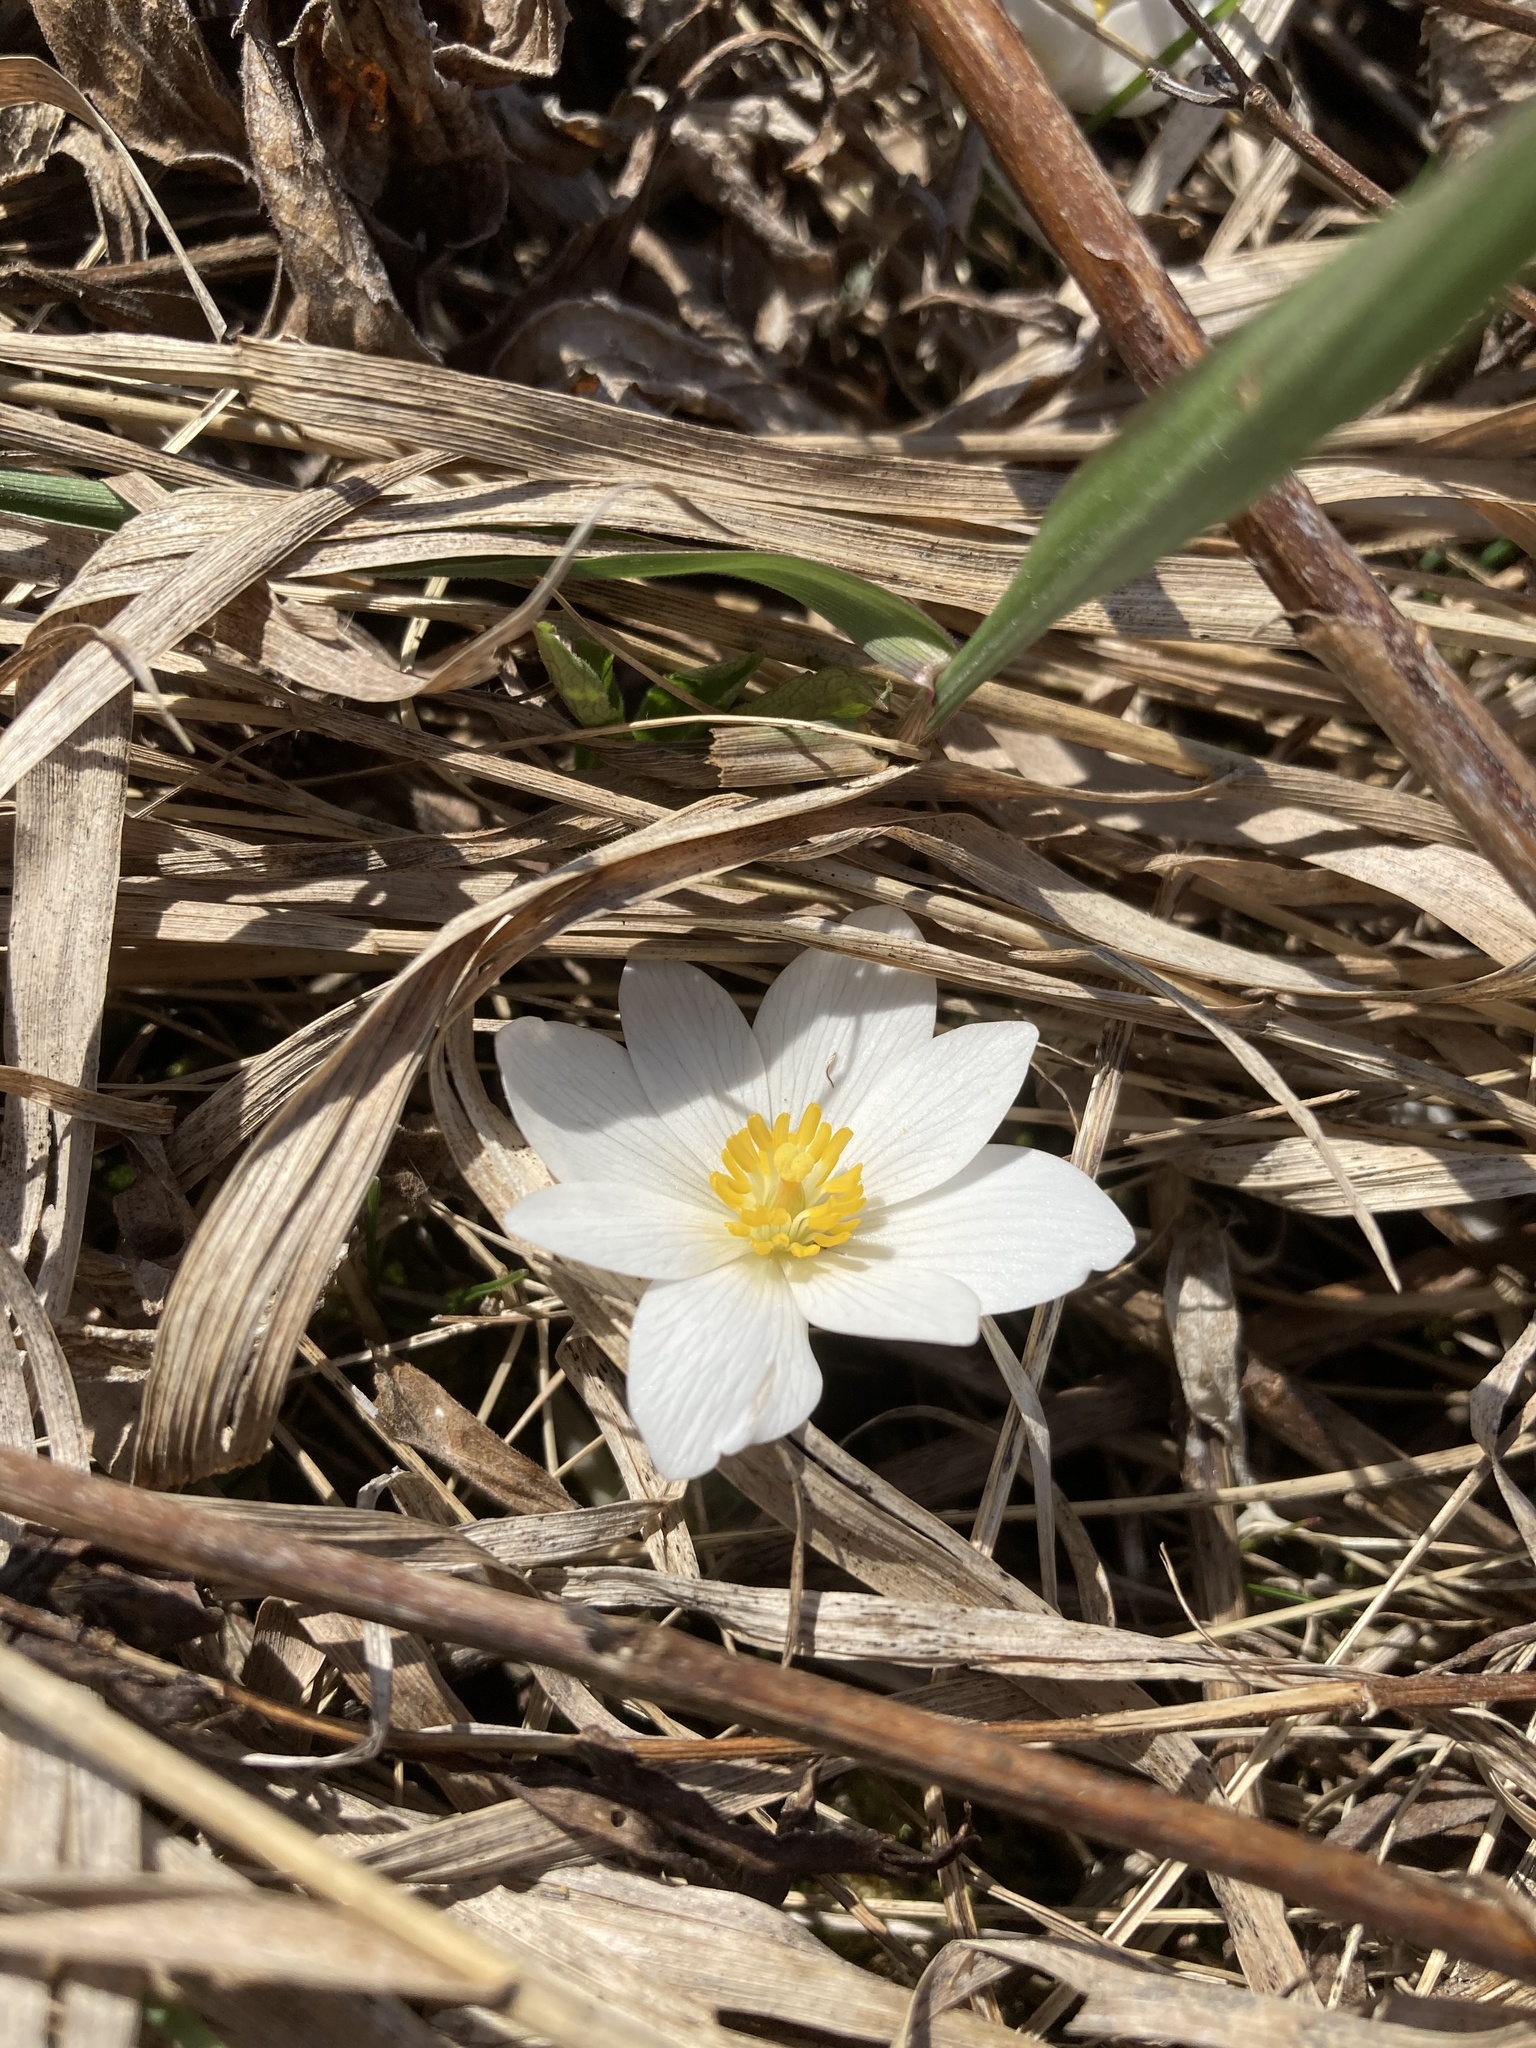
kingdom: Plantae
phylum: Tracheophyta
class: Magnoliopsida
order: Ranunculales
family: Papaveraceae
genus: Sanguinaria
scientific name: Sanguinaria canadensis
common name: Bloodroot
